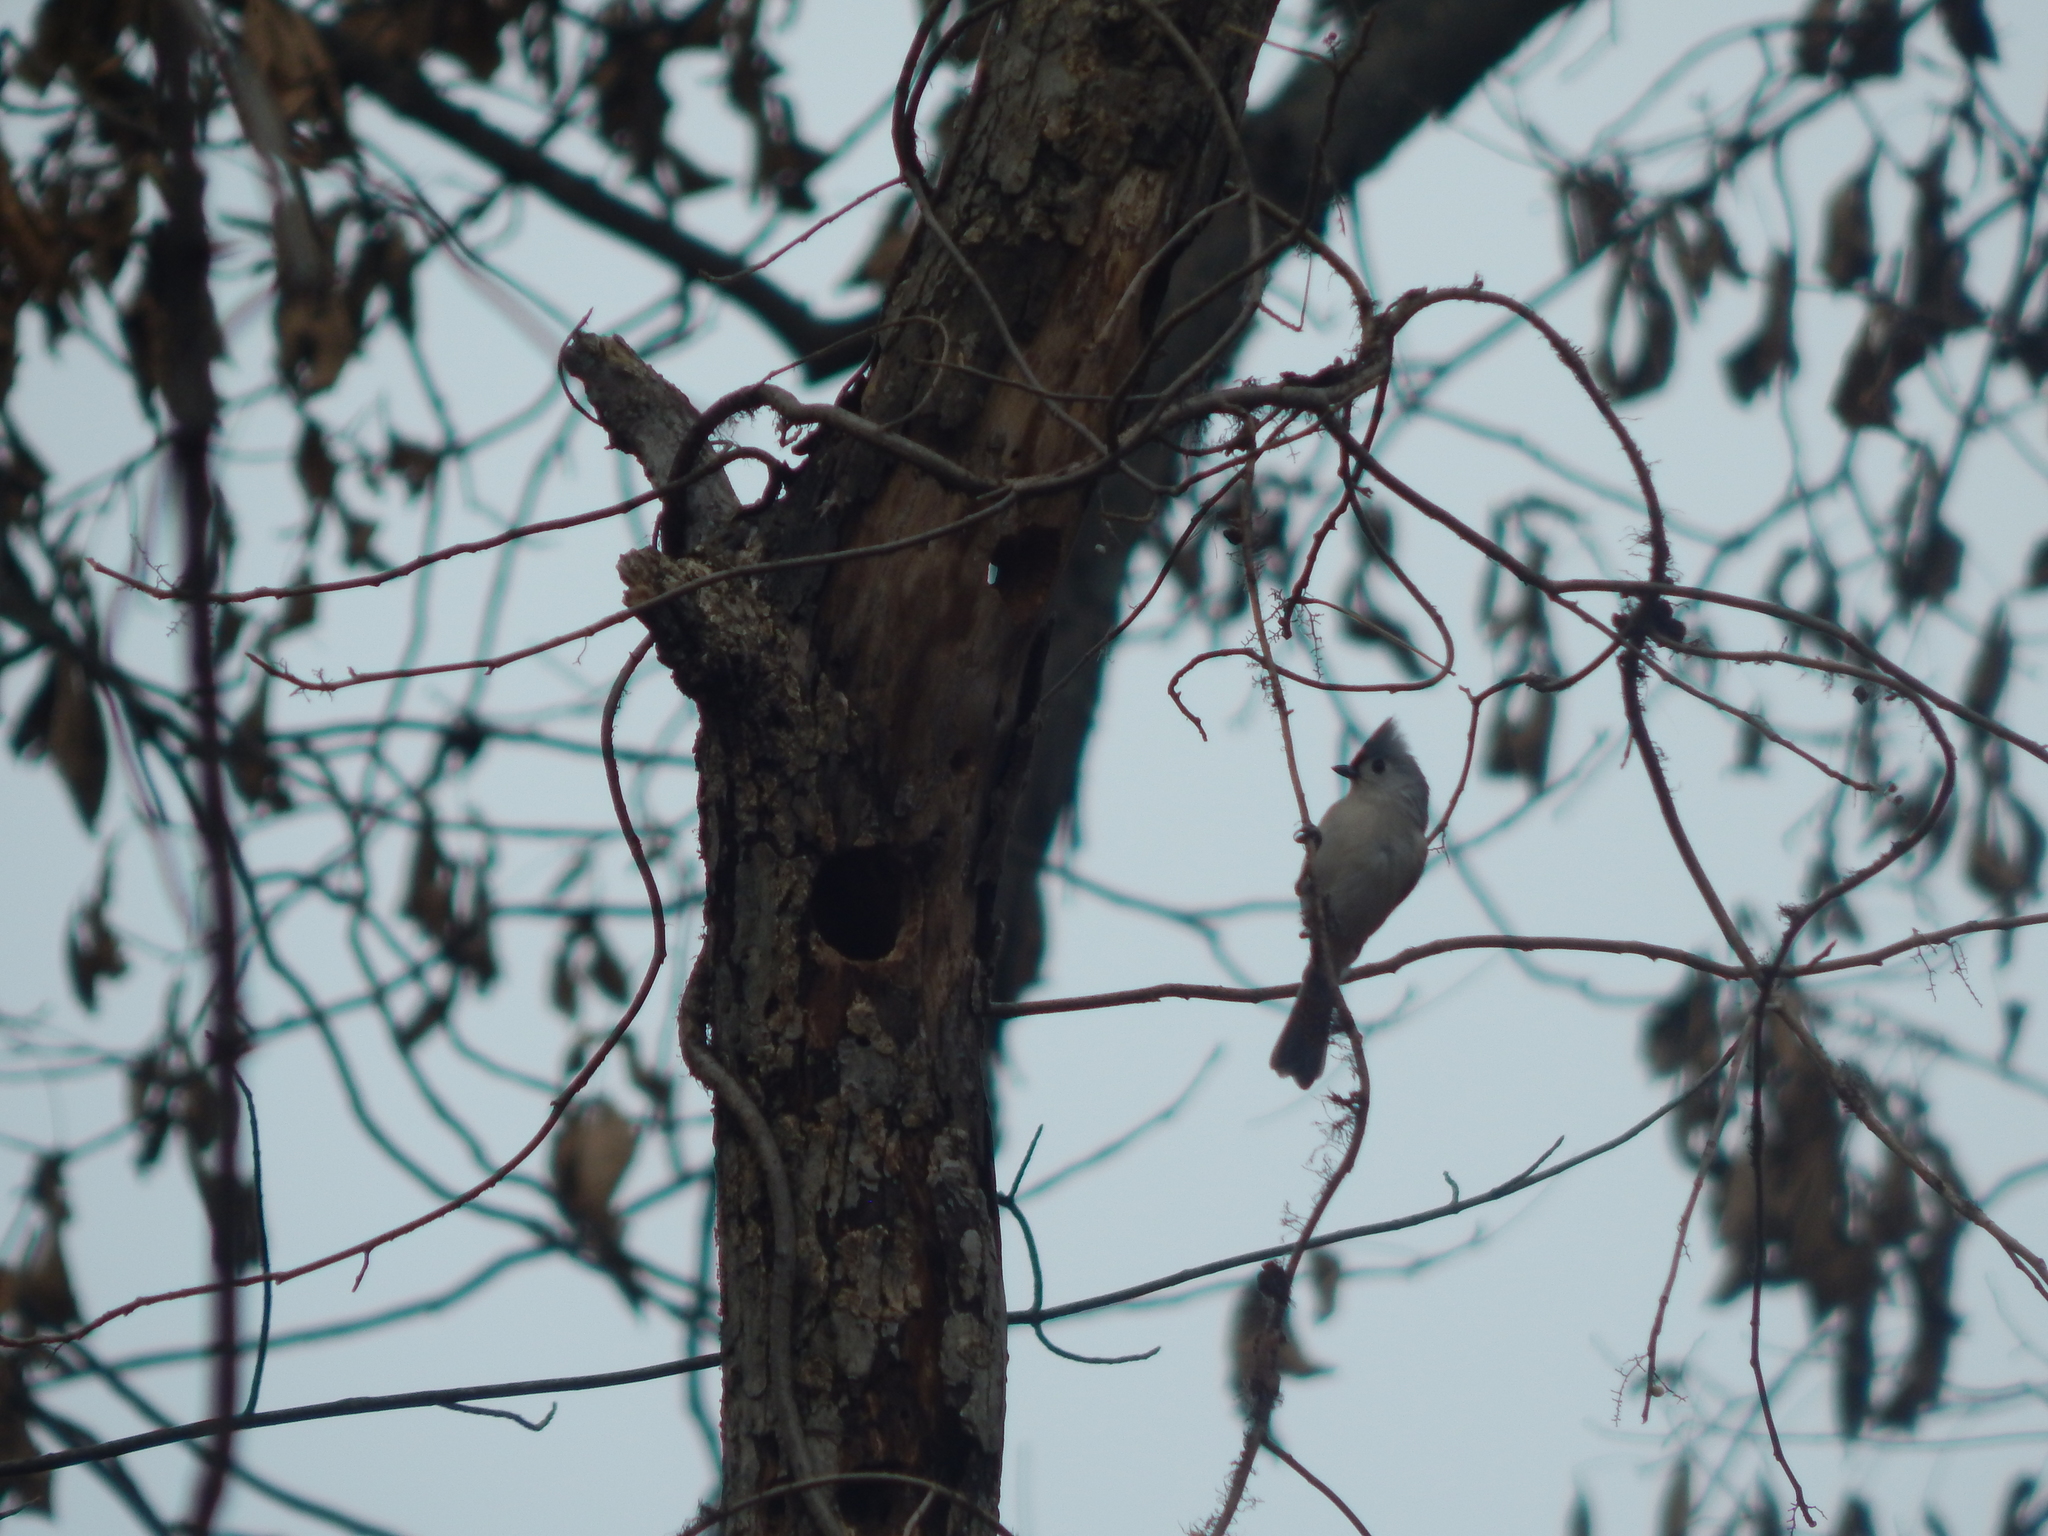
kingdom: Animalia
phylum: Chordata
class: Aves
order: Passeriformes
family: Paridae
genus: Baeolophus
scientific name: Baeolophus bicolor
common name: Tufted titmouse
